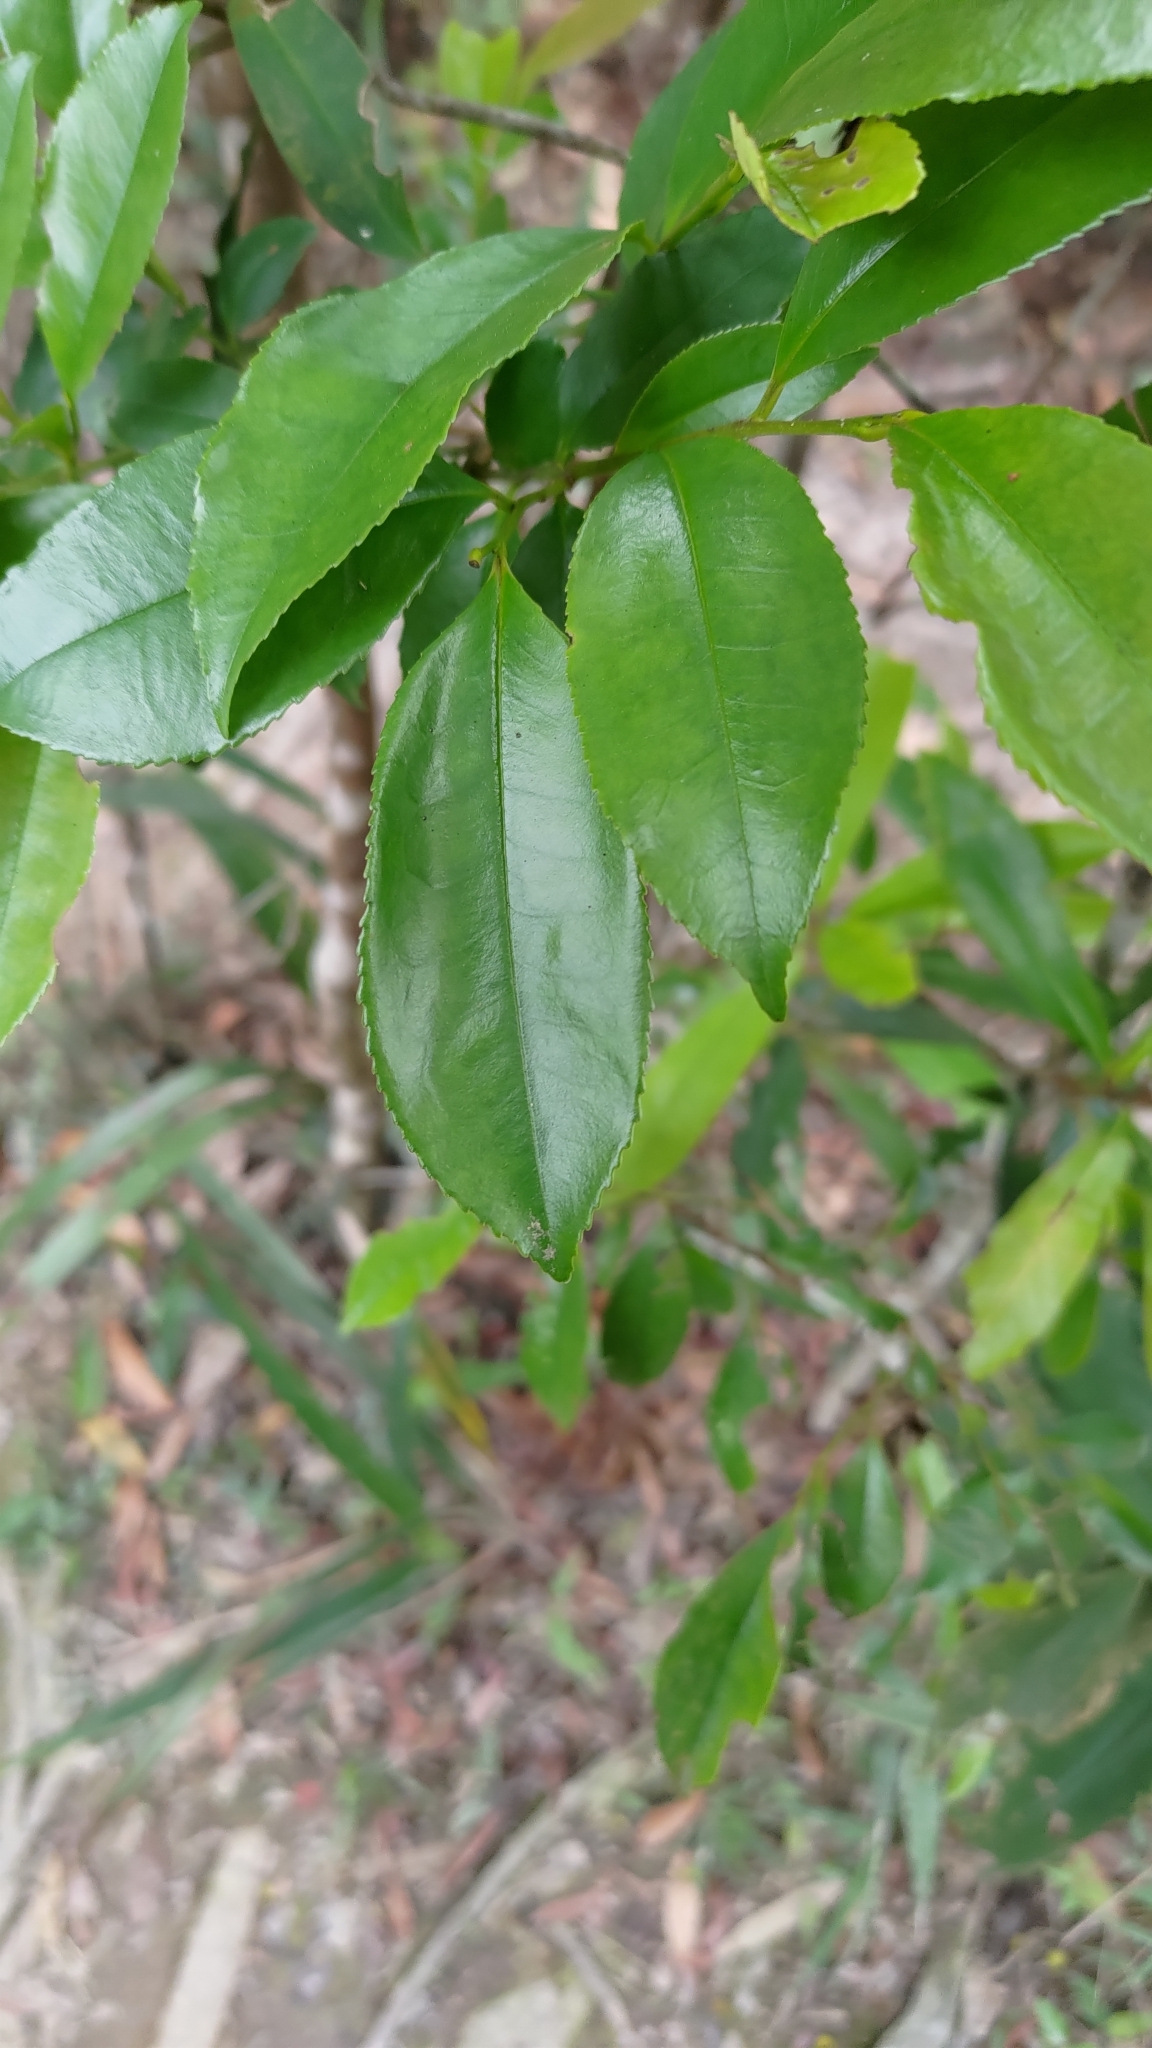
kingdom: Plantae
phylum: Tracheophyta
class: Magnoliopsida
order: Ericales
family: Pentaphylacaceae
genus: Eurya
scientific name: Eurya nitida
